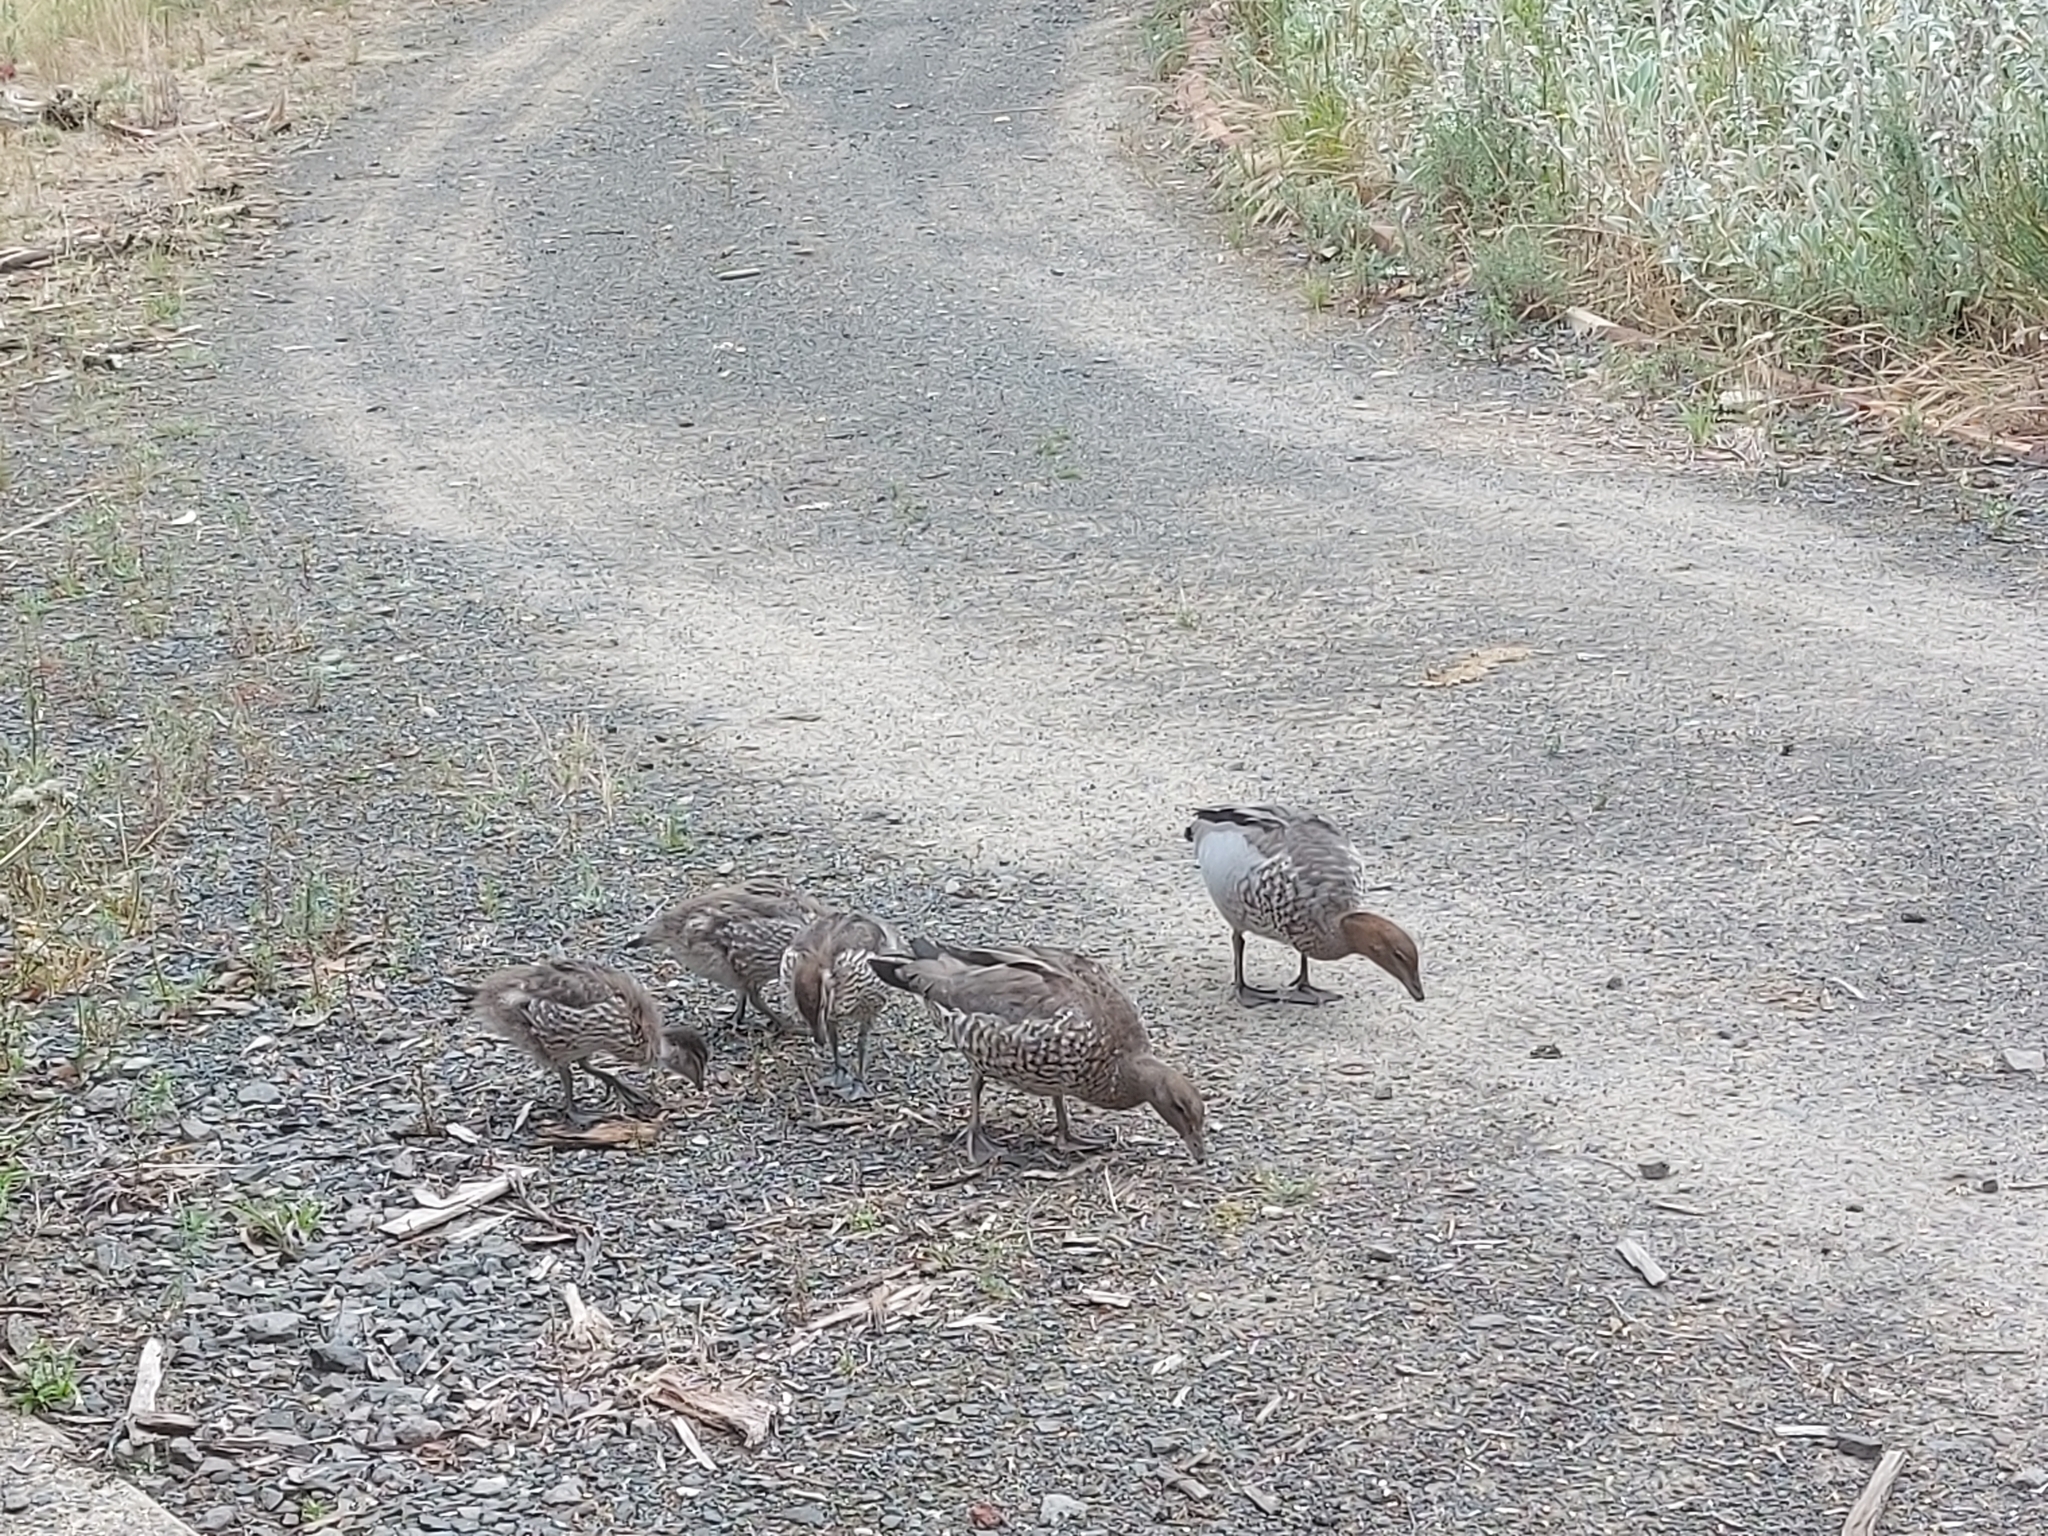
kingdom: Animalia
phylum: Chordata
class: Aves
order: Anseriformes
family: Anatidae
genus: Chenonetta
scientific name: Chenonetta jubata
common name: Maned duck
